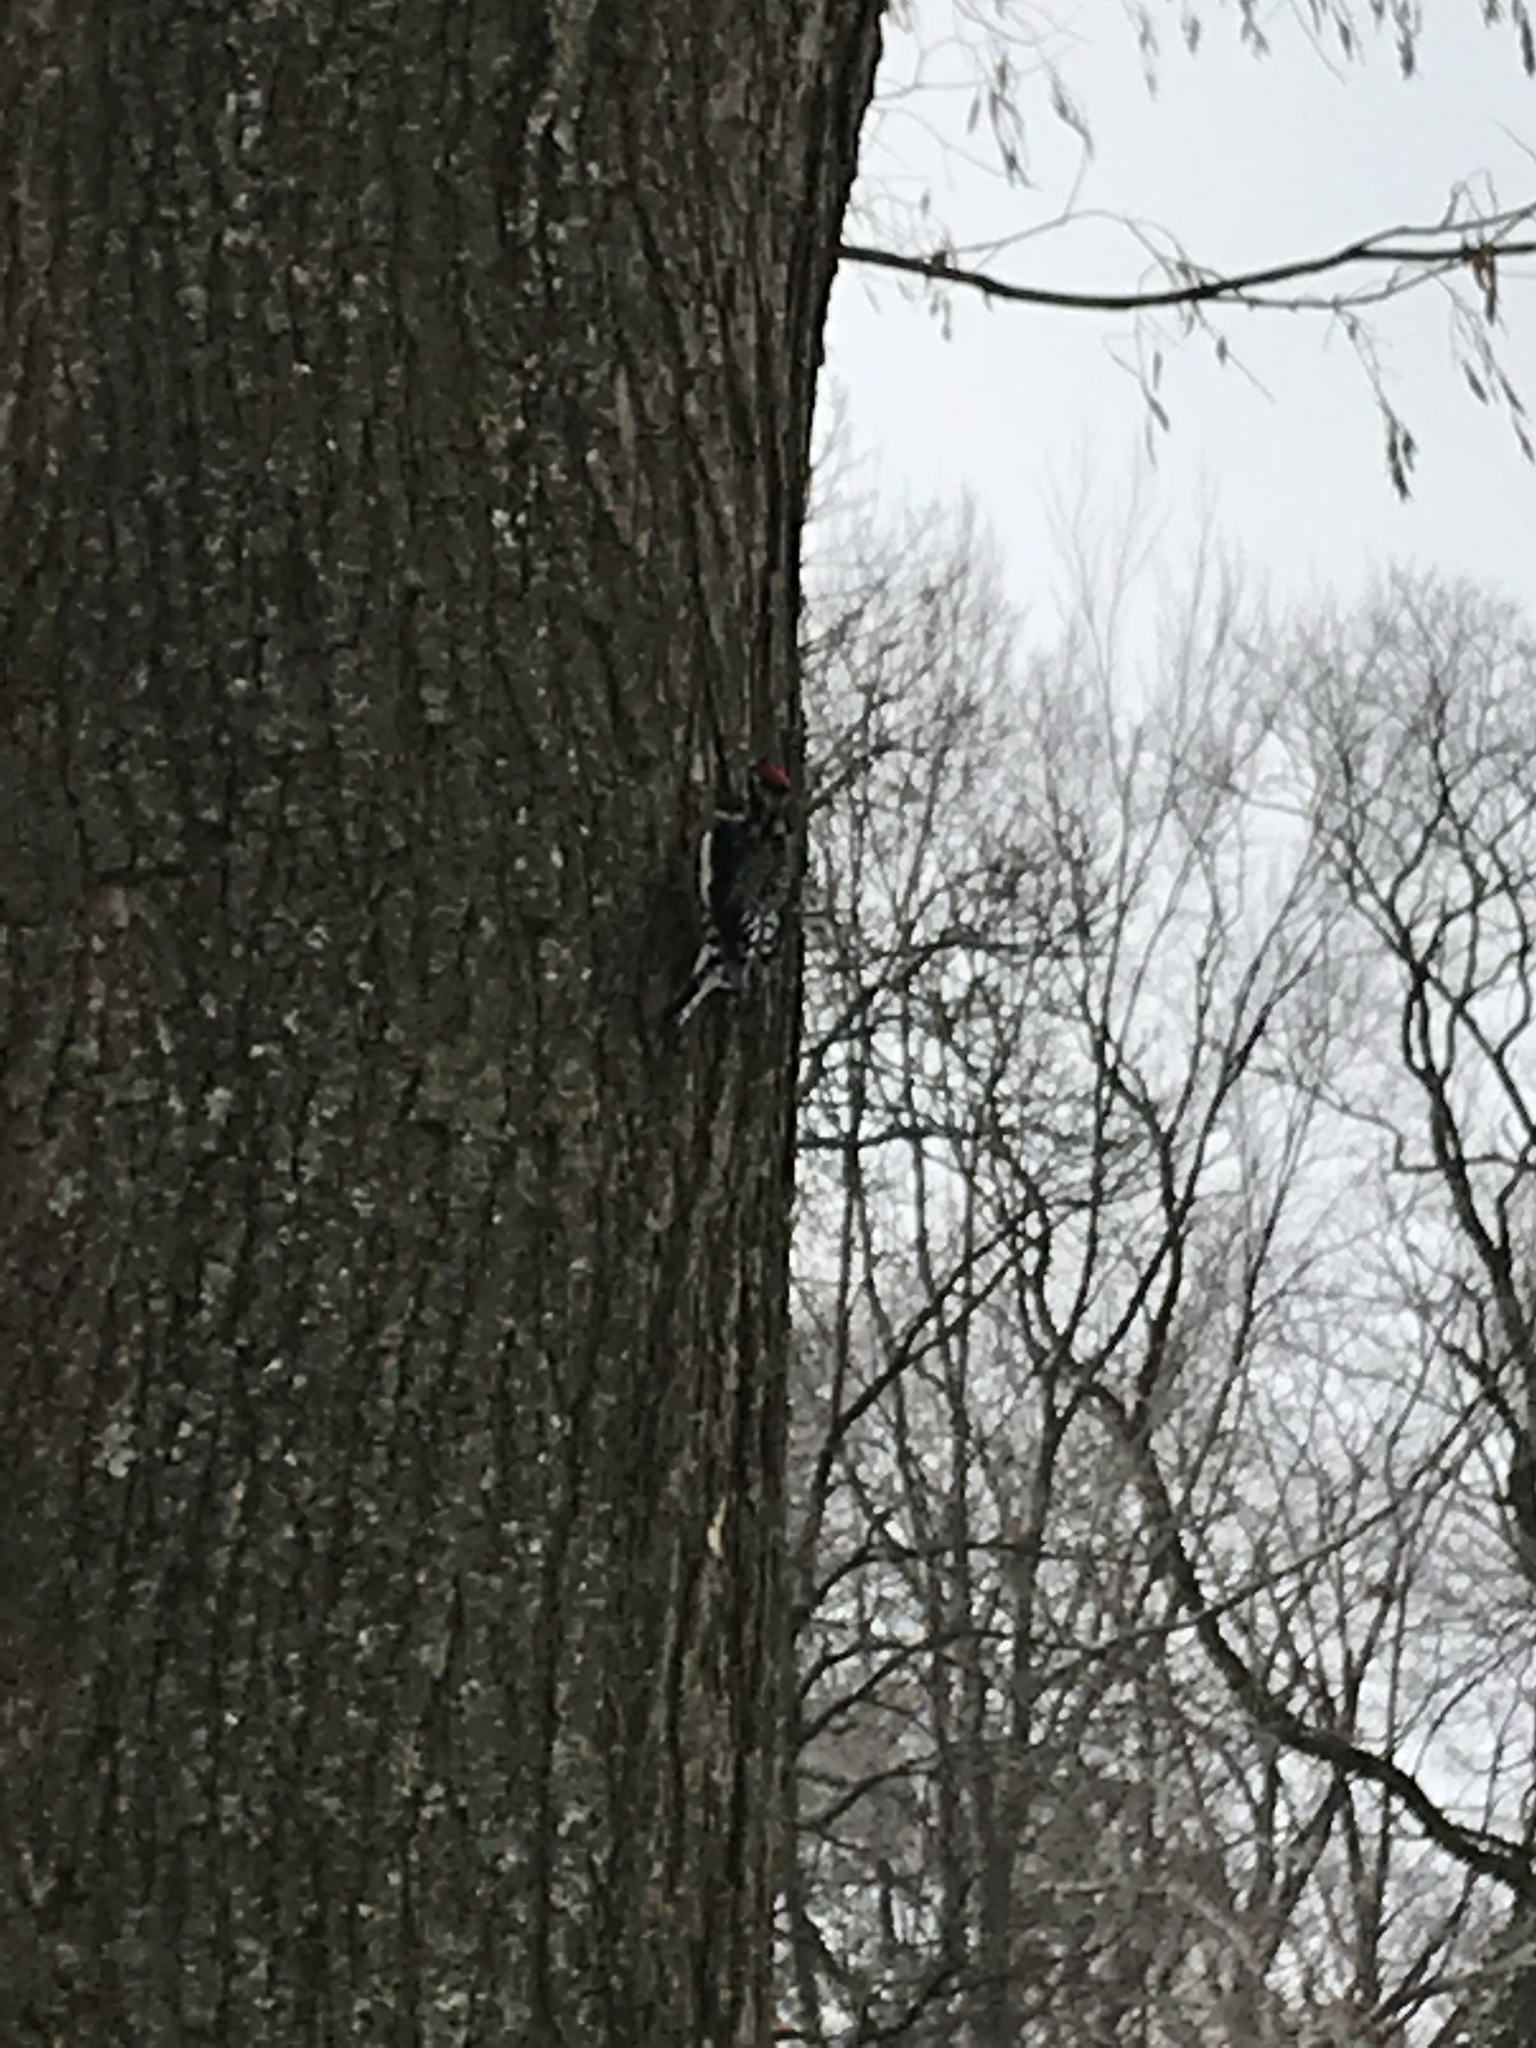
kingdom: Animalia
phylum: Chordata
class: Aves
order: Piciformes
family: Picidae
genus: Sphyrapicus
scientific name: Sphyrapicus varius
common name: Yellow-bellied sapsucker
